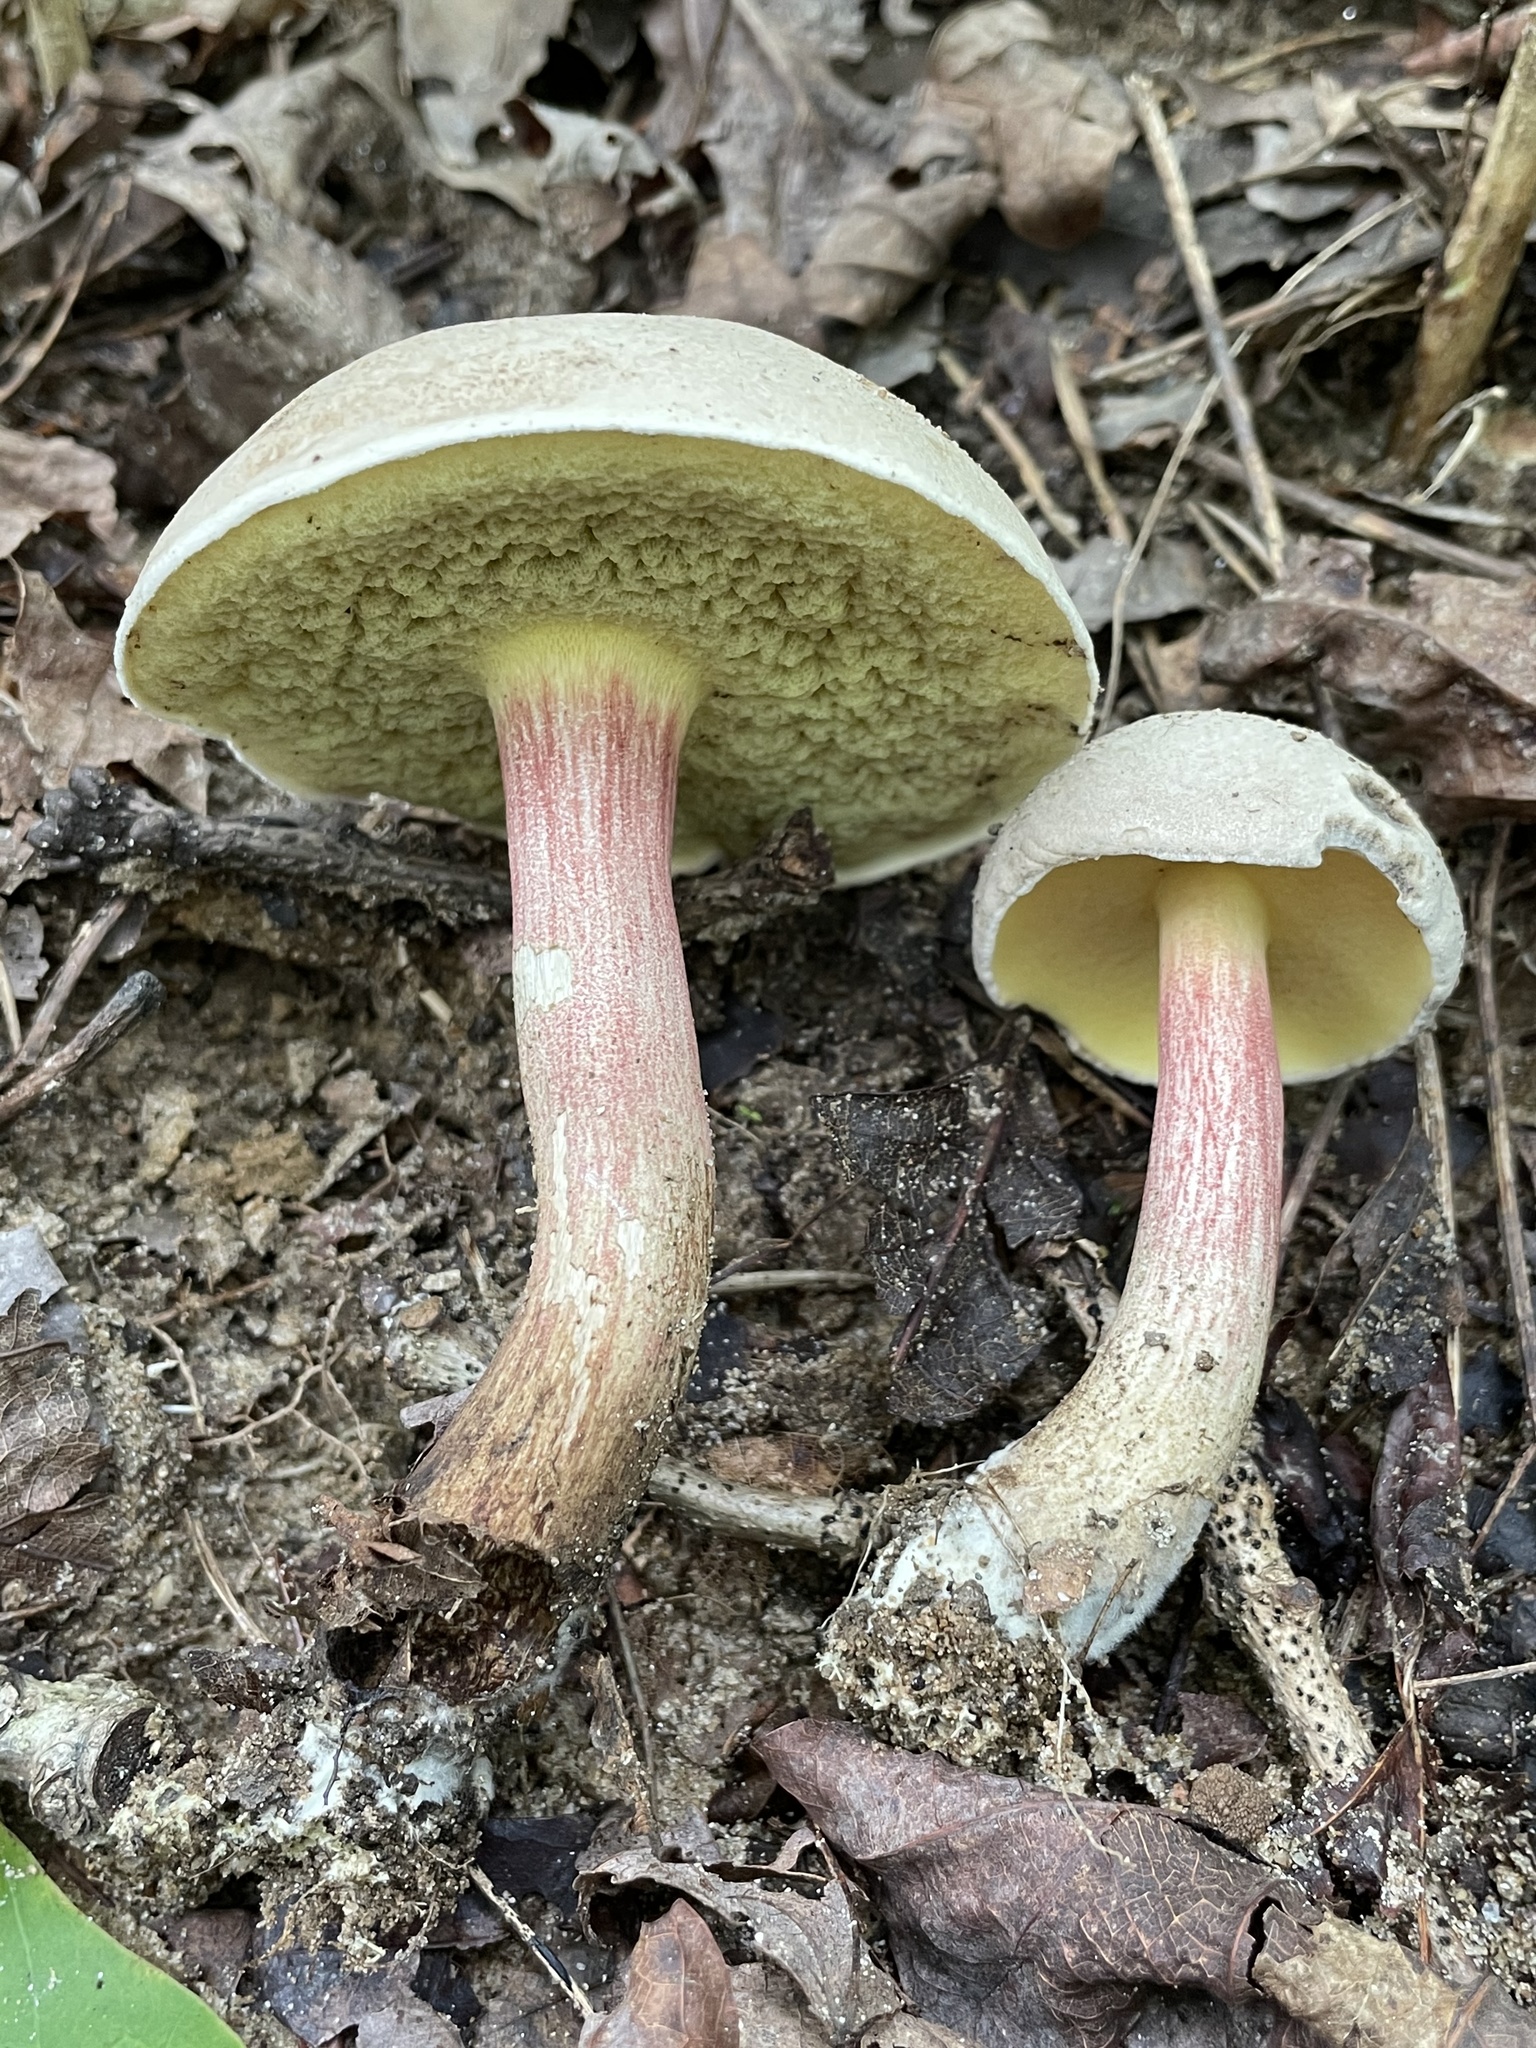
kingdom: Fungi
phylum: Basidiomycota
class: Agaricomycetes
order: Boletales
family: Boletaceae
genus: Caloboletus
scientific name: Caloboletus inedulis
